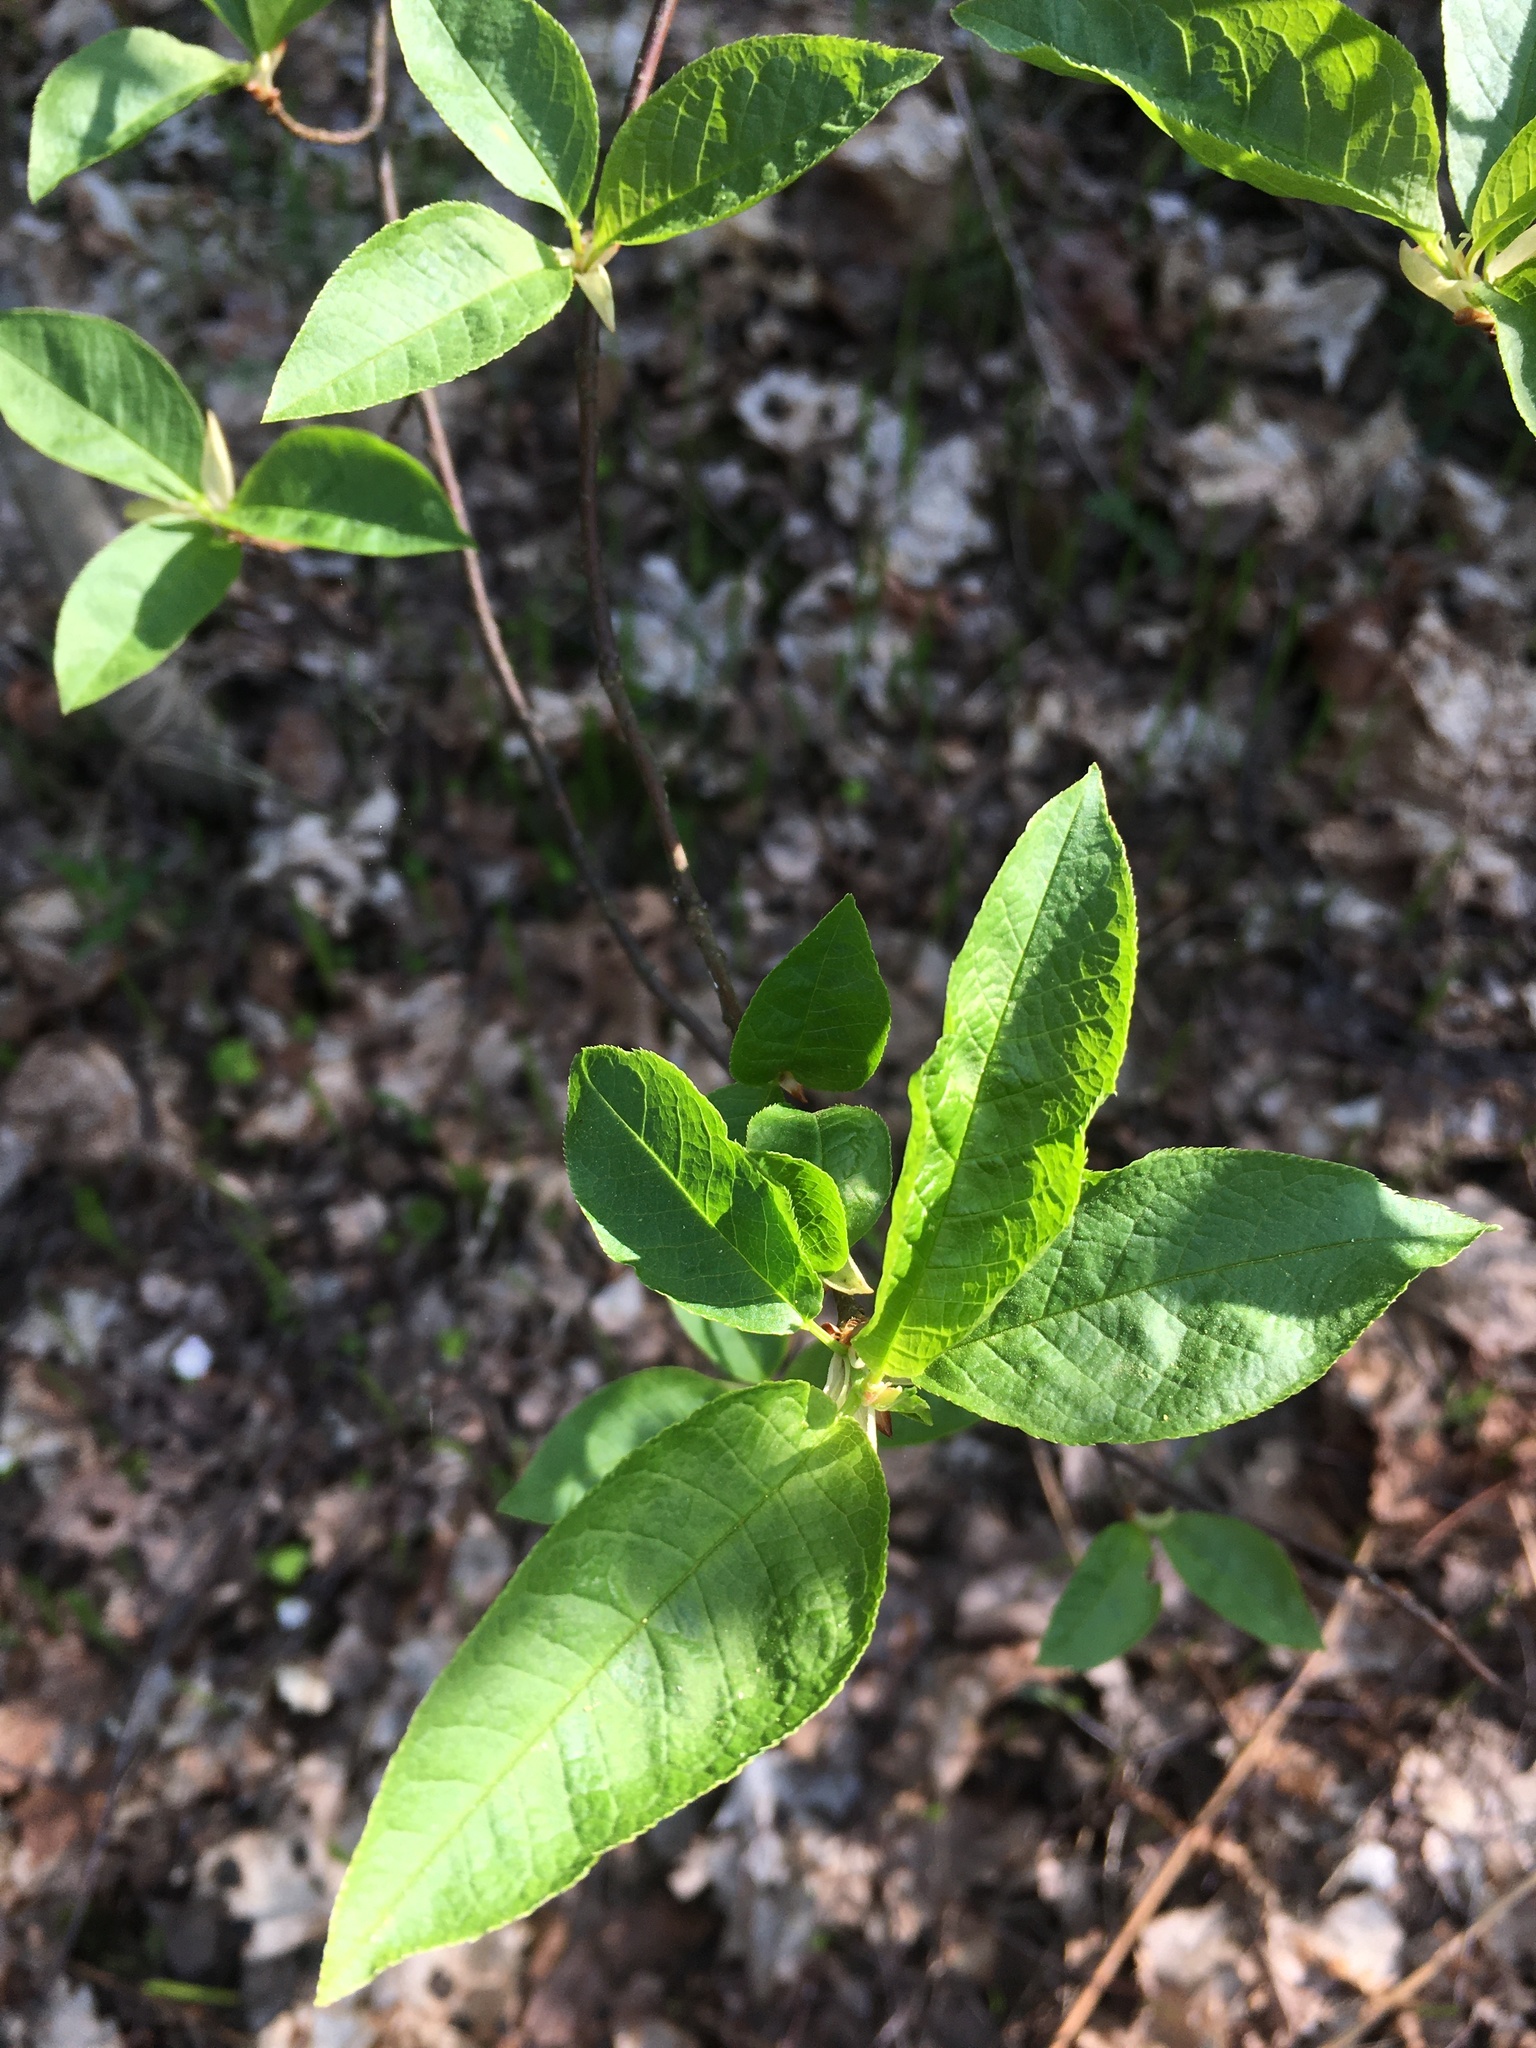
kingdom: Plantae
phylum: Tracheophyta
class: Magnoliopsida
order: Rosales
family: Rosaceae
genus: Prunus
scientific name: Prunus padus
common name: Bird cherry
